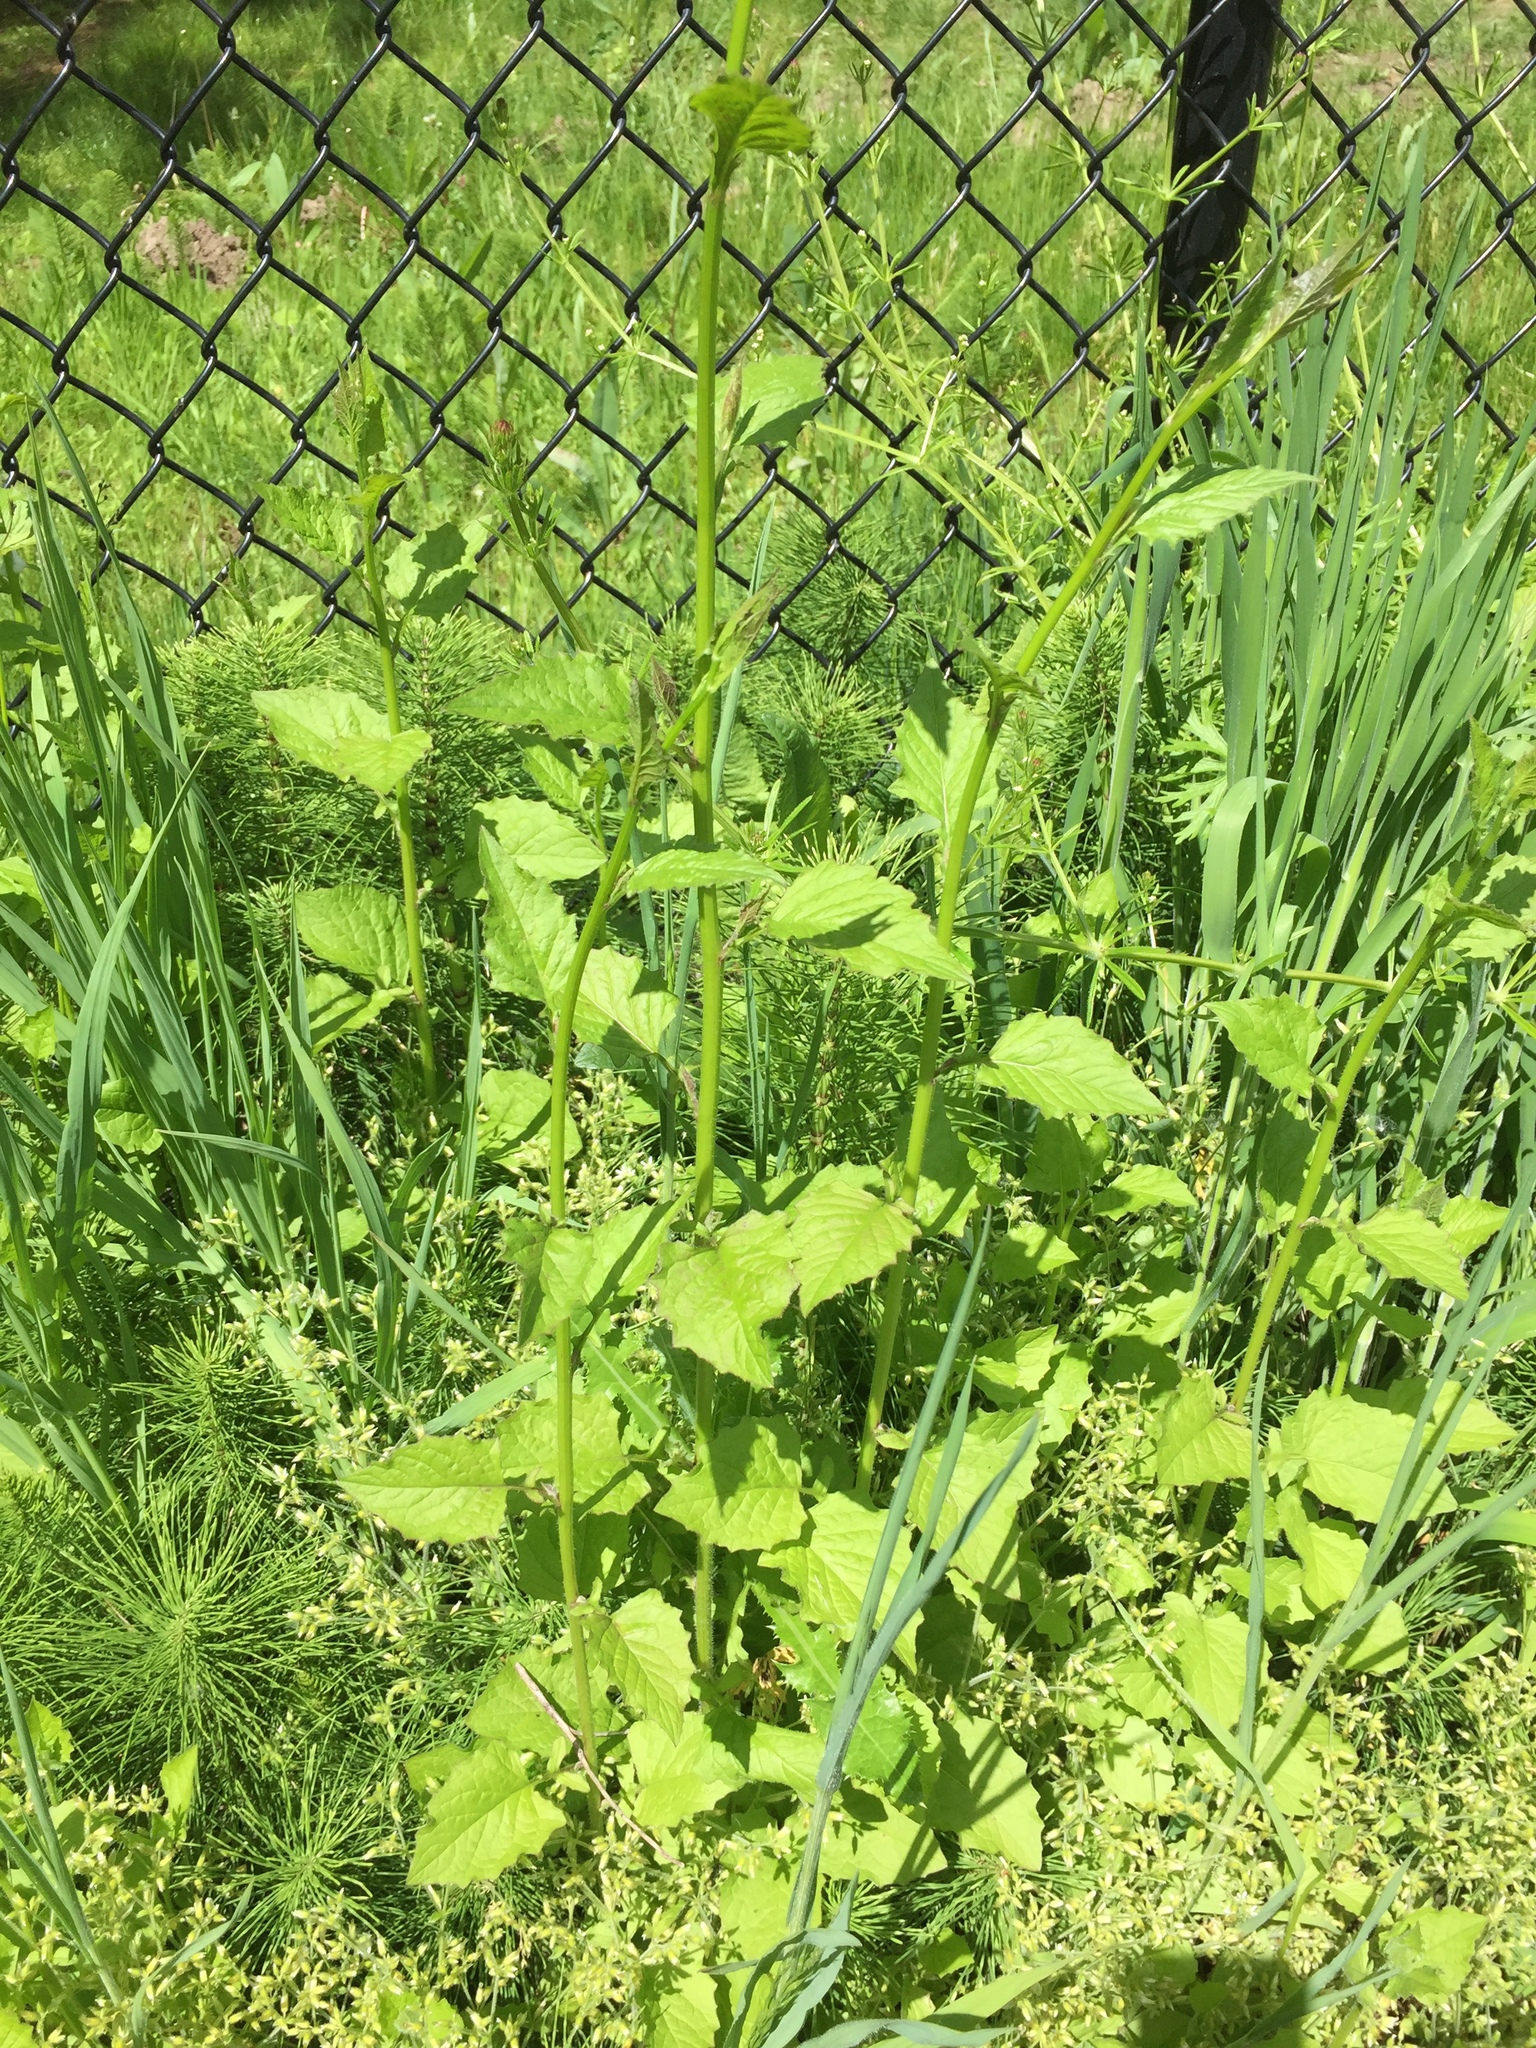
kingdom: Plantae
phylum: Tracheophyta
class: Magnoliopsida
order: Asterales
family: Asteraceae
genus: Lapsana
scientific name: Lapsana communis
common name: Nipplewort
